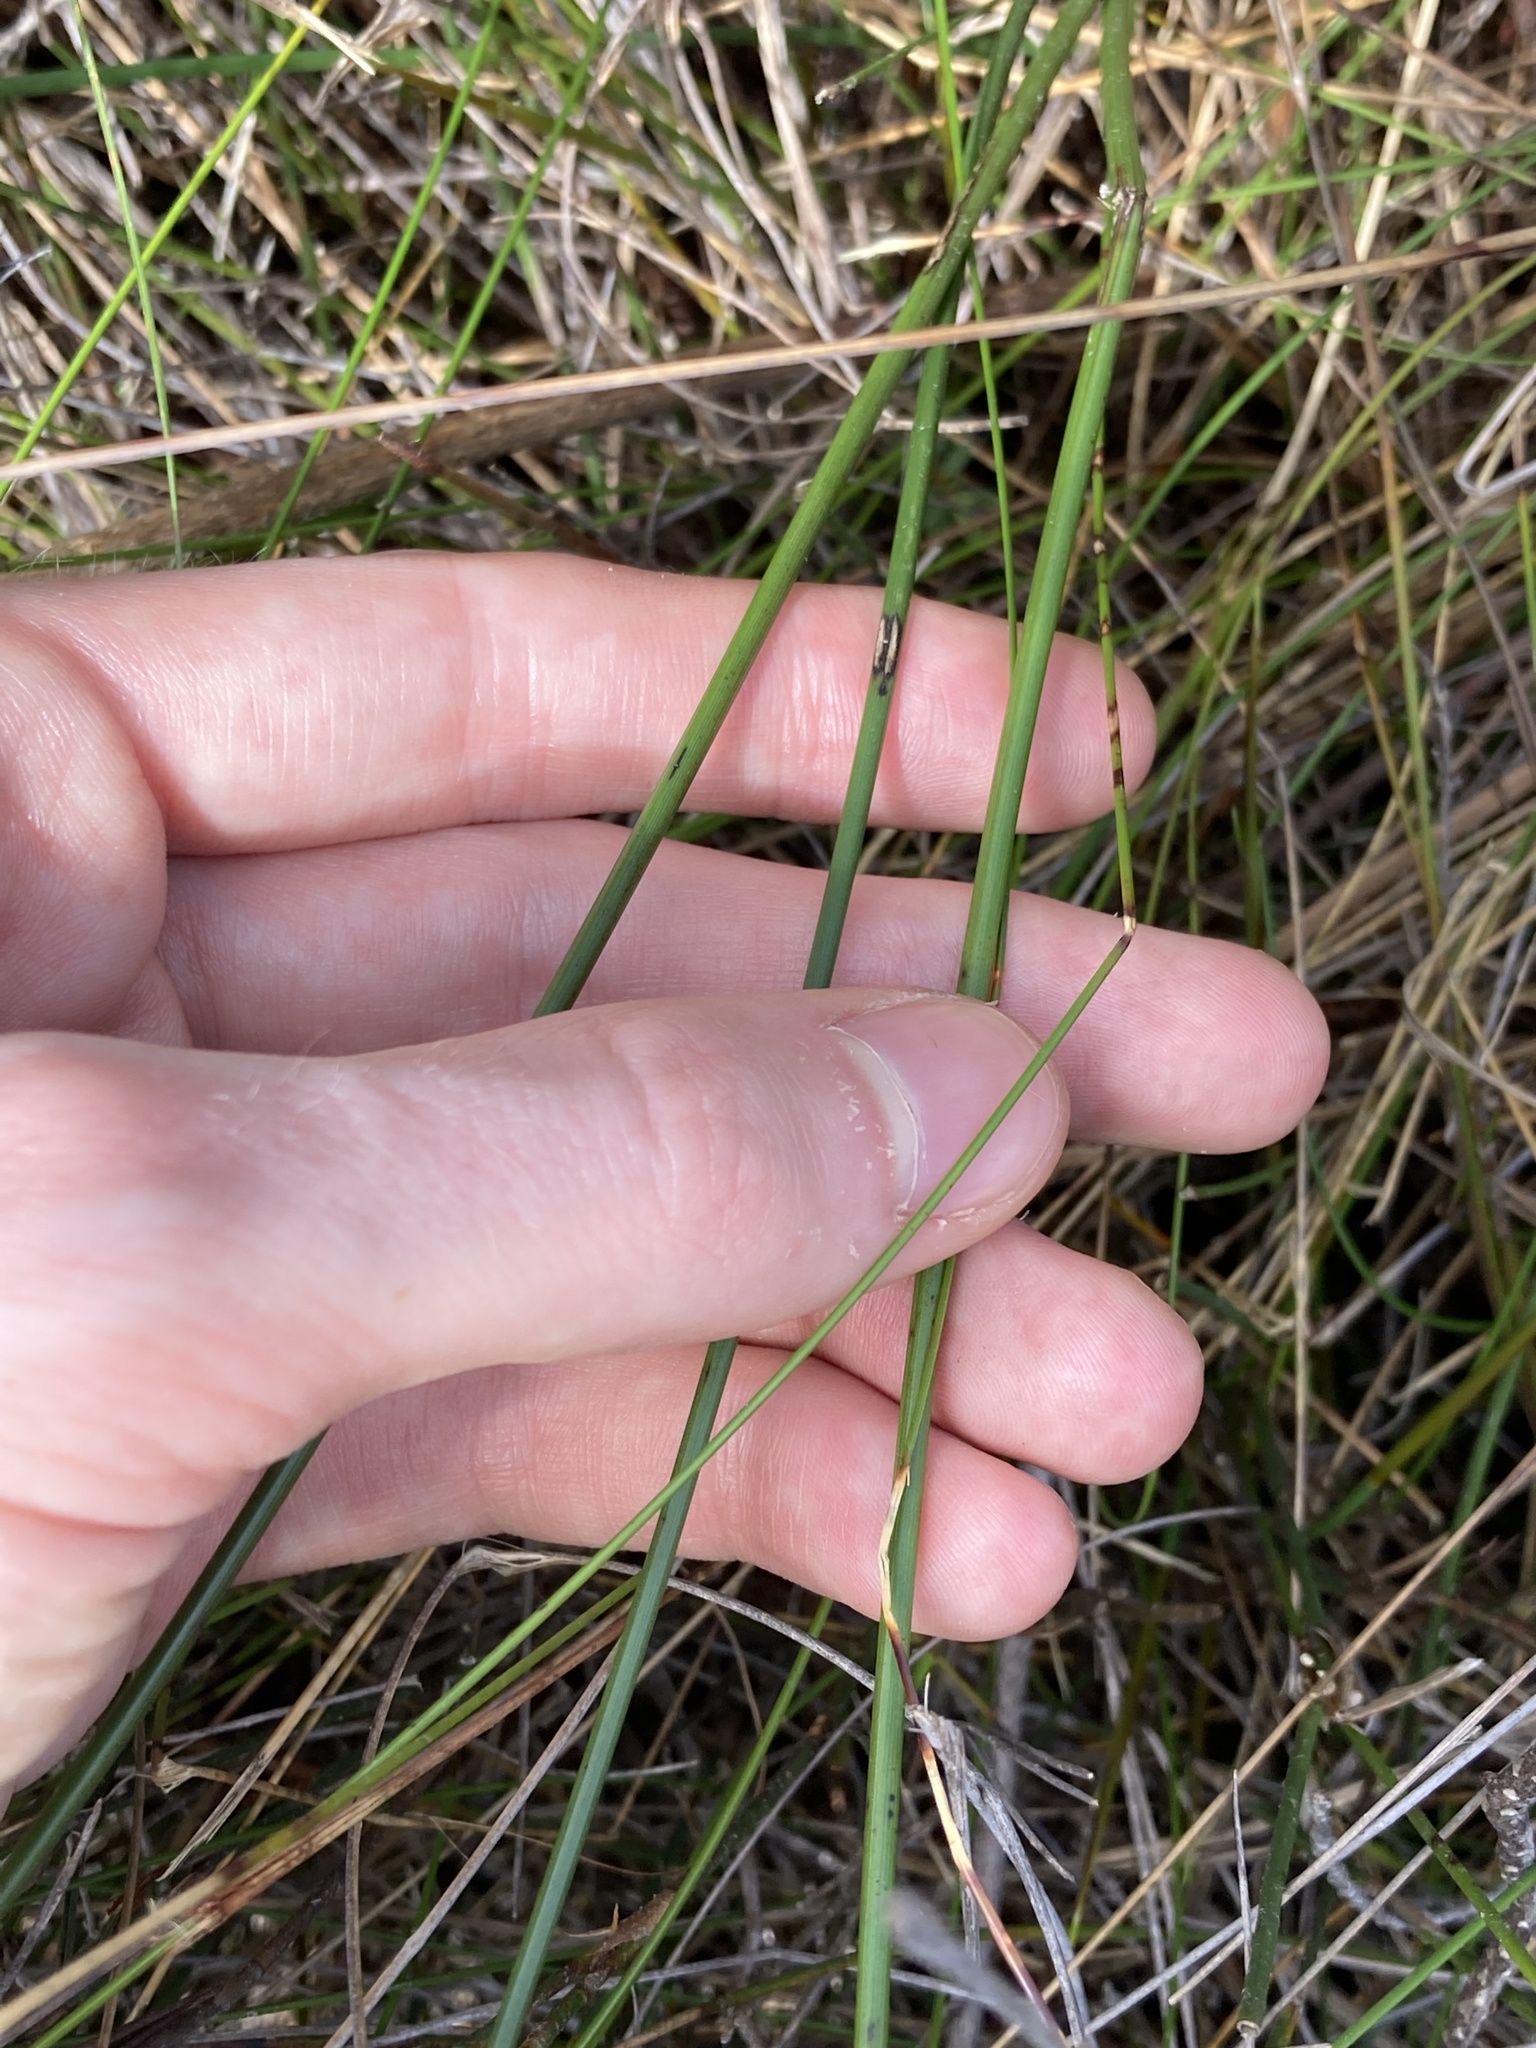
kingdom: Plantae
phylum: Tracheophyta
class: Liliopsida
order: Commelinales
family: Haemodoraceae
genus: Haemodorum
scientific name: Haemodorum corymbosum
